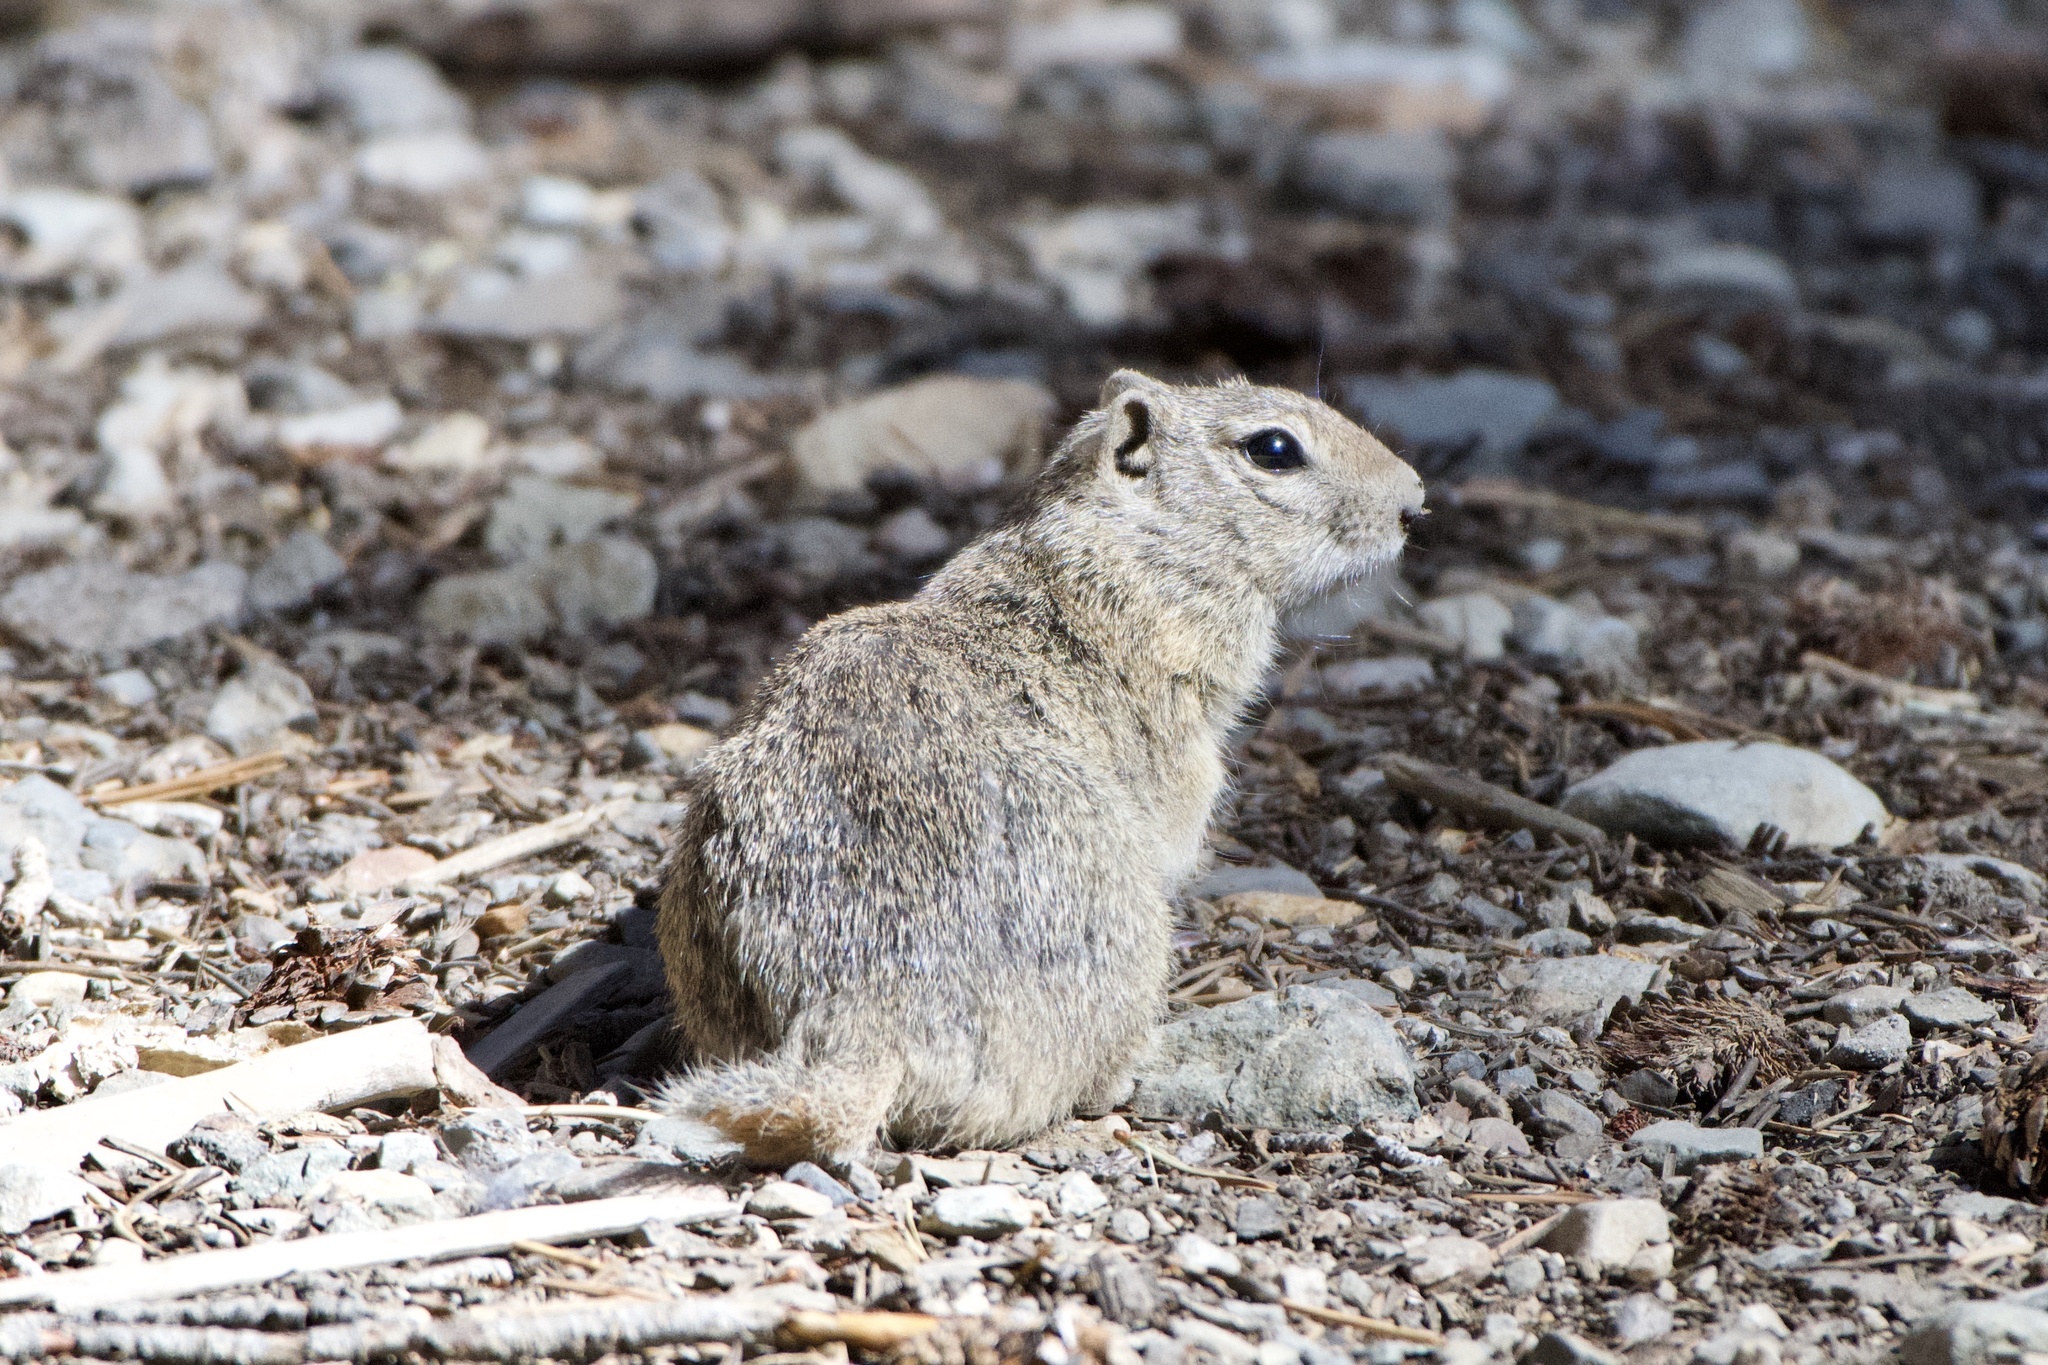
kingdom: Animalia
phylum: Chordata
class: Mammalia
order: Rodentia
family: Sciuridae
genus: Urocitellus
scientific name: Urocitellus beldingi
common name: Belding's ground squirrel
